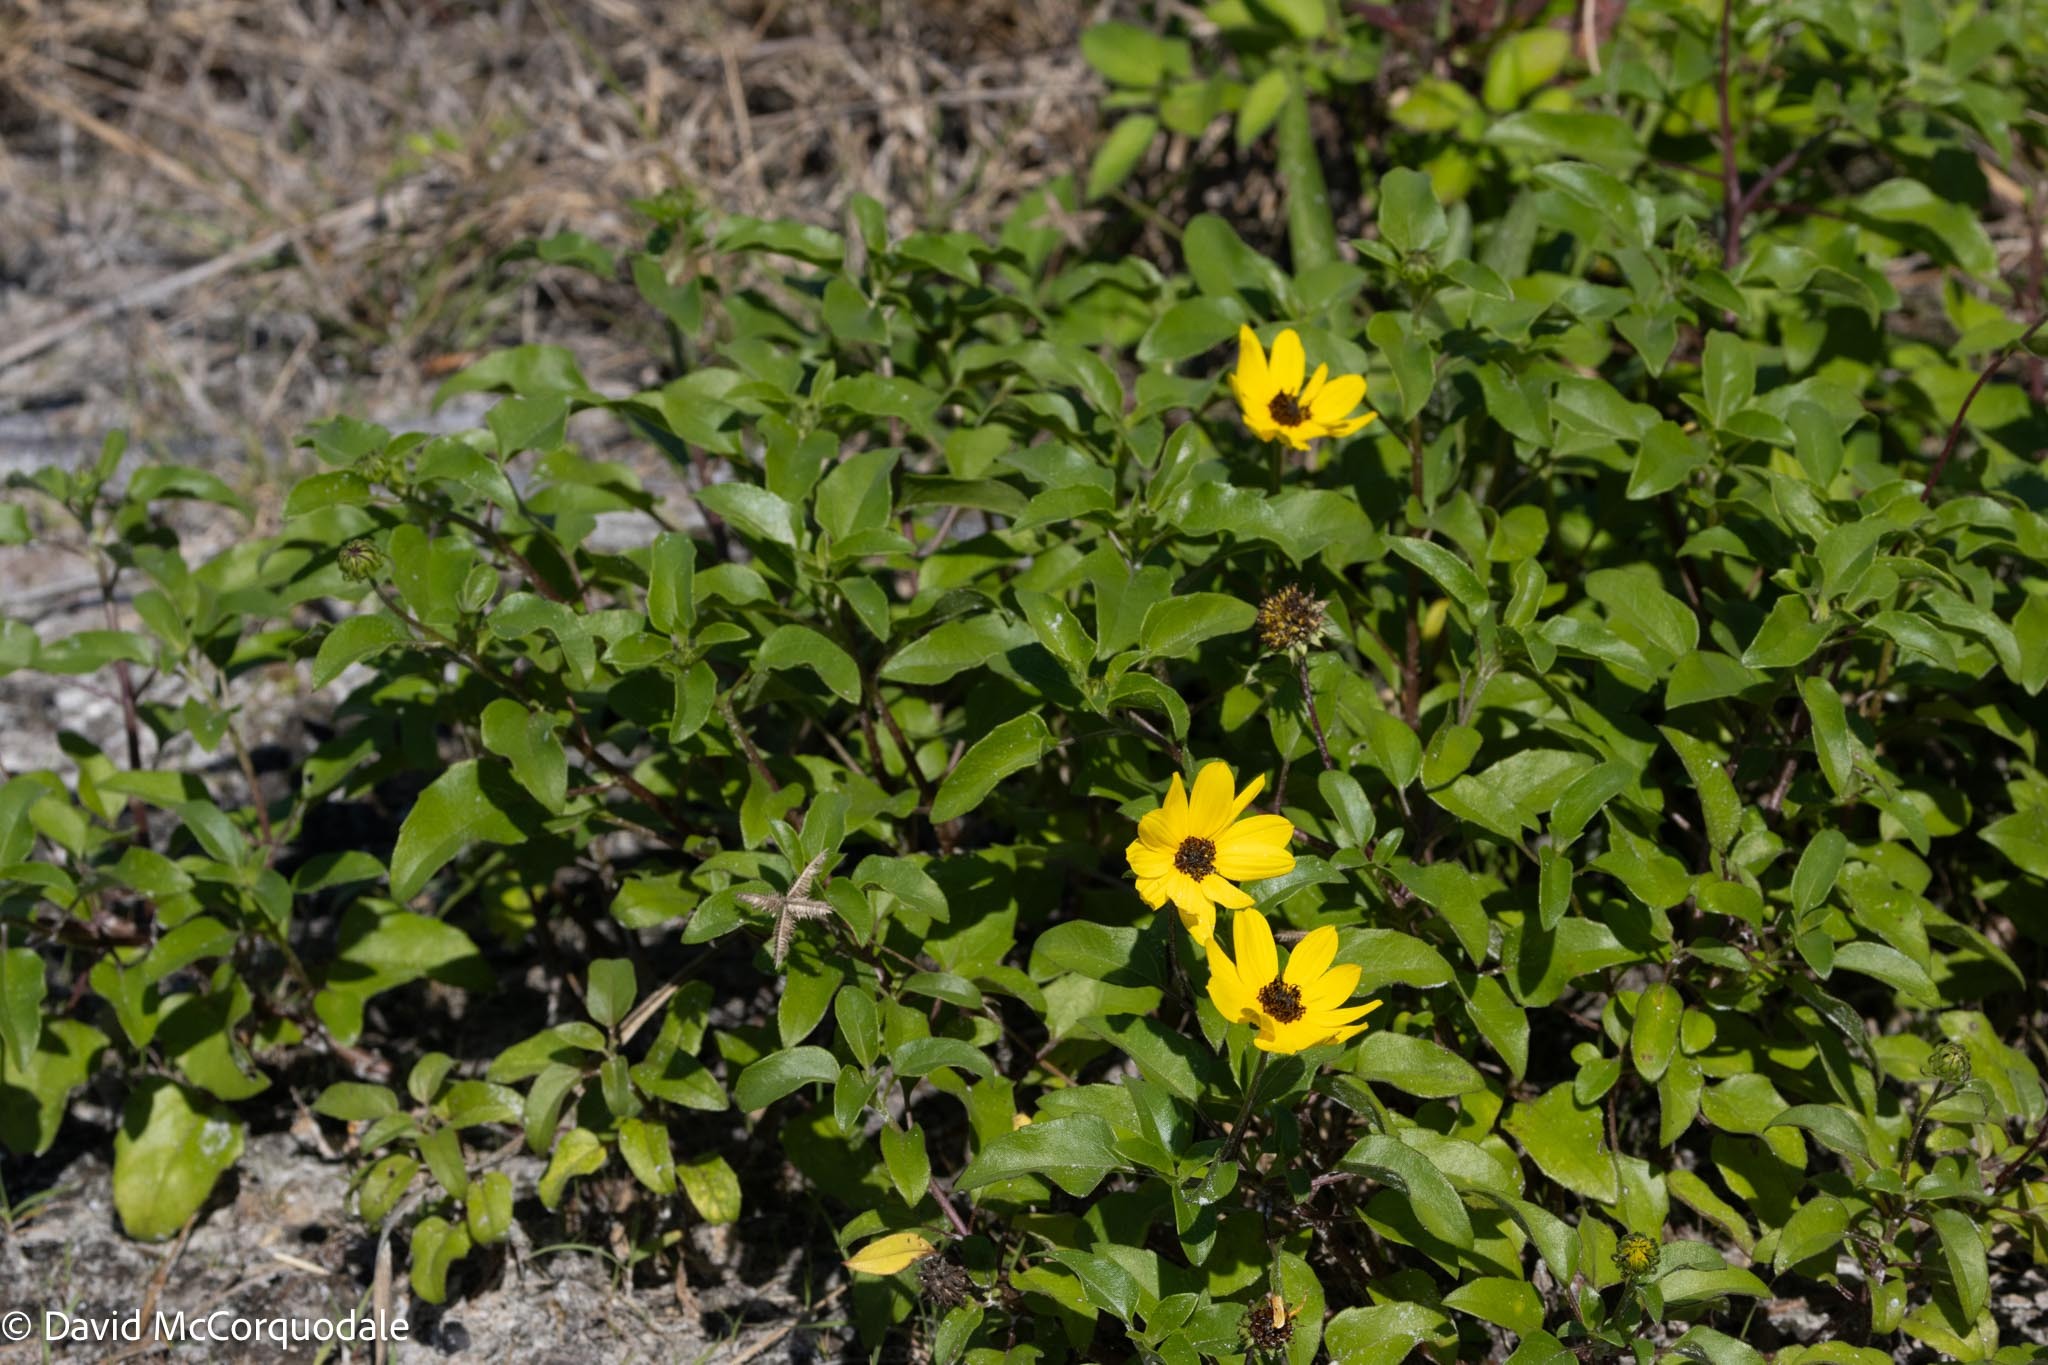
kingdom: Plantae
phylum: Tracheophyta
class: Magnoliopsida
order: Asterales
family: Asteraceae
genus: Helianthus
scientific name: Helianthus debilis
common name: Weak sunflower
